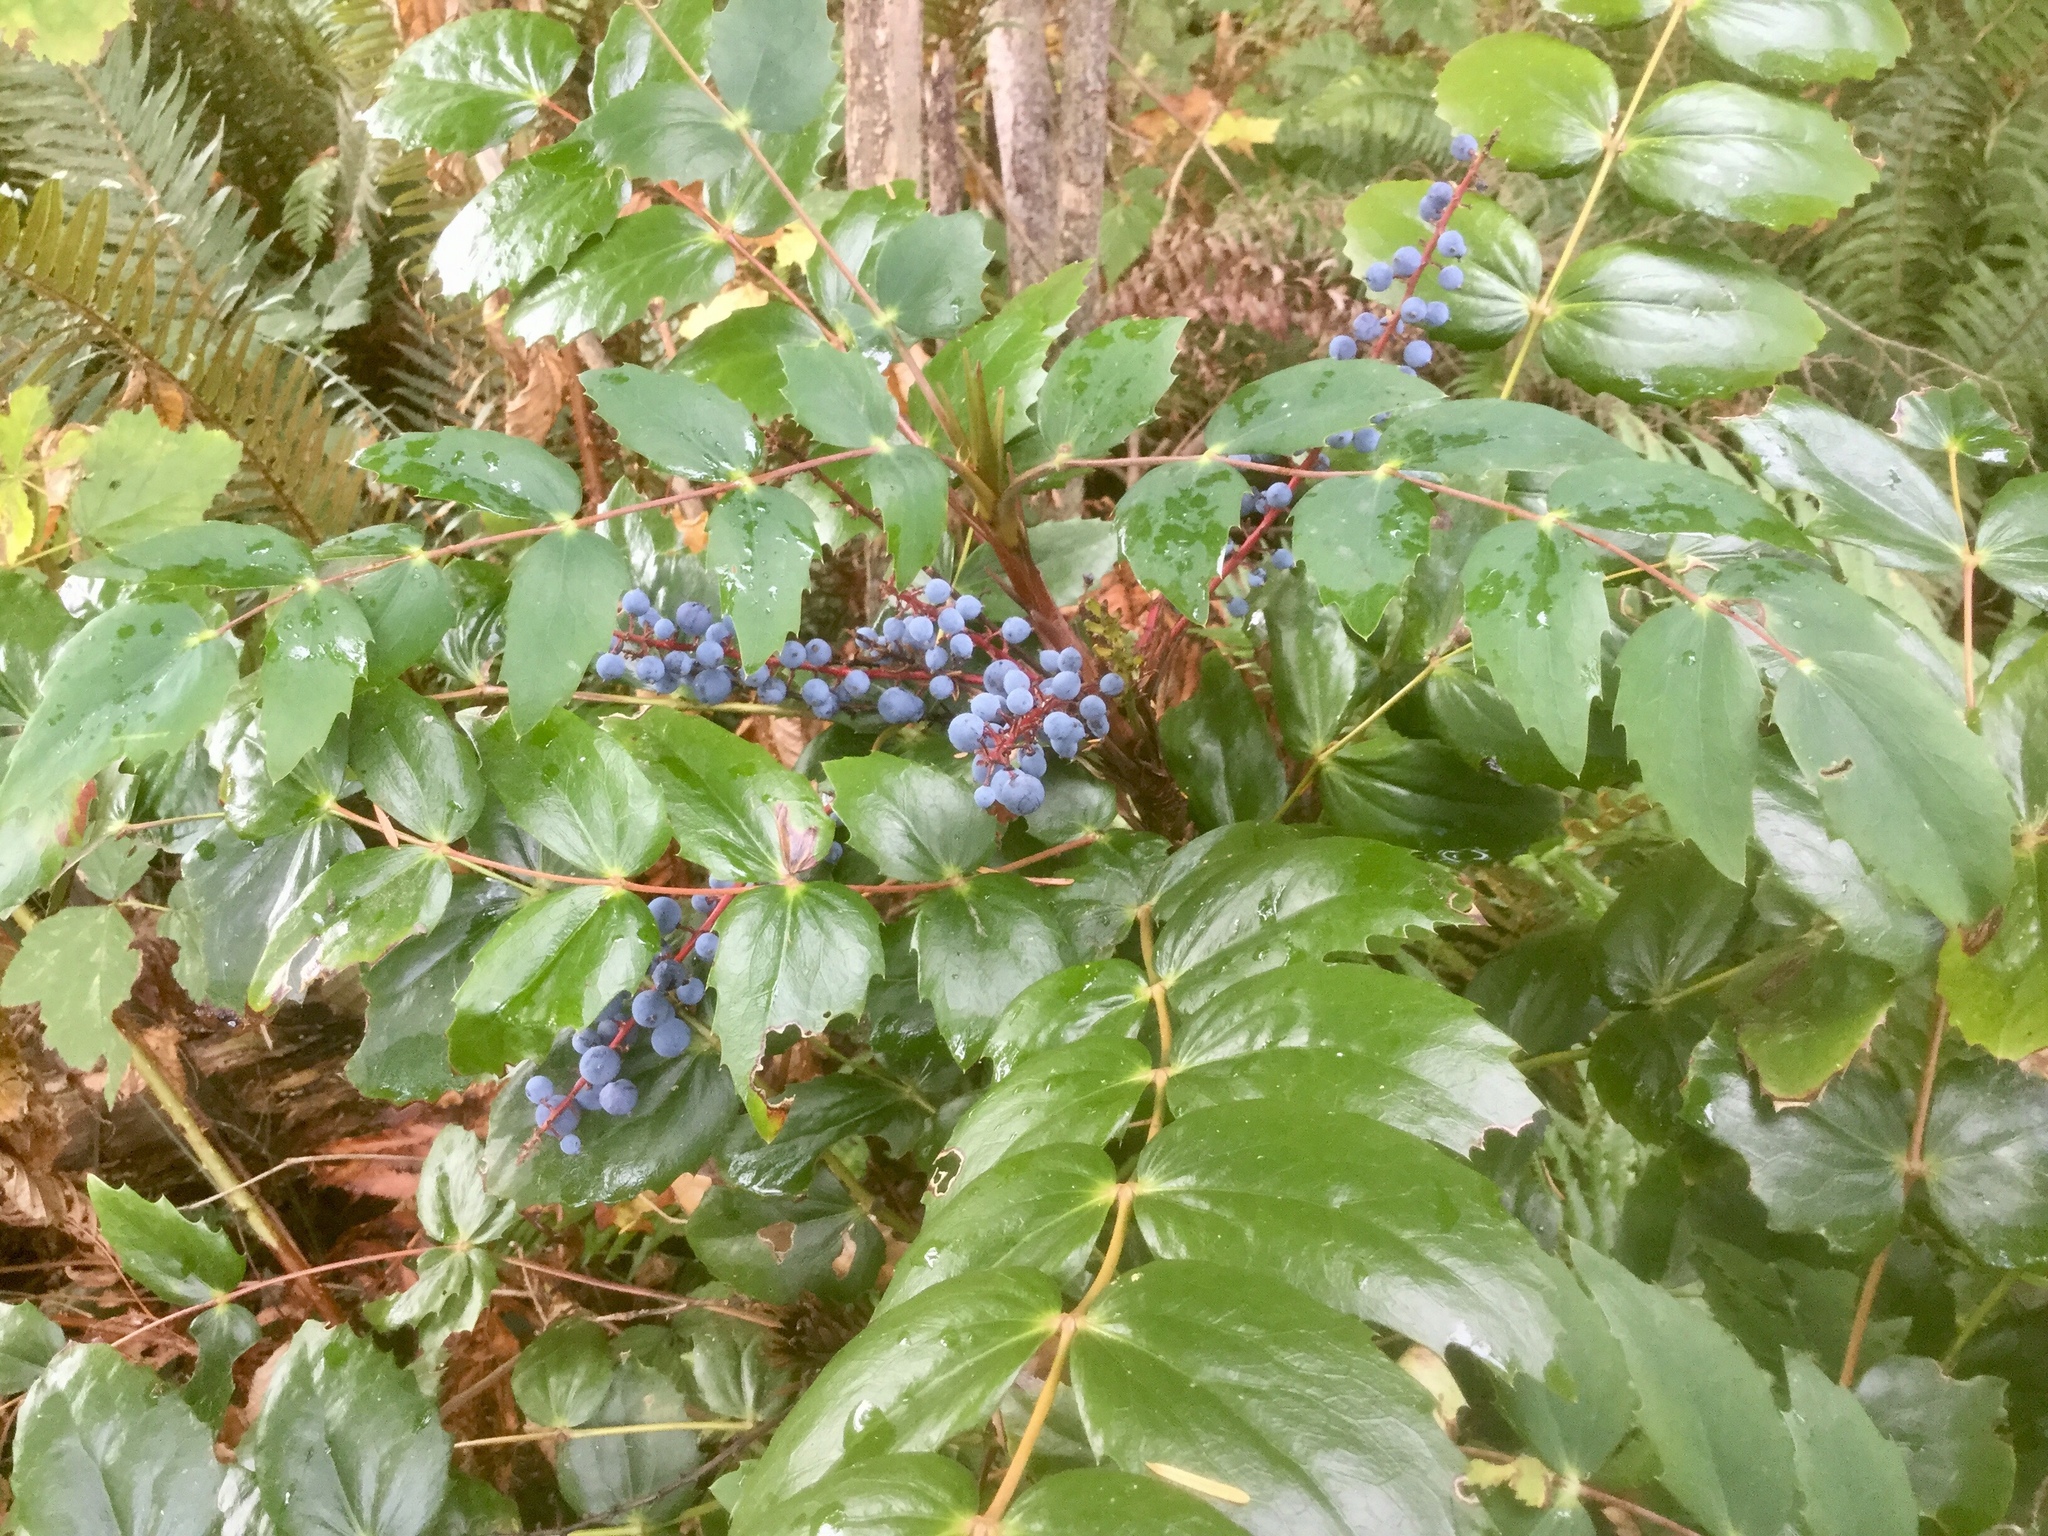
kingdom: Plantae
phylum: Tracheophyta
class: Magnoliopsida
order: Ranunculales
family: Berberidaceae
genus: Mahonia
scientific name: Mahonia nervosa
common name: Cascade oregon-grape
